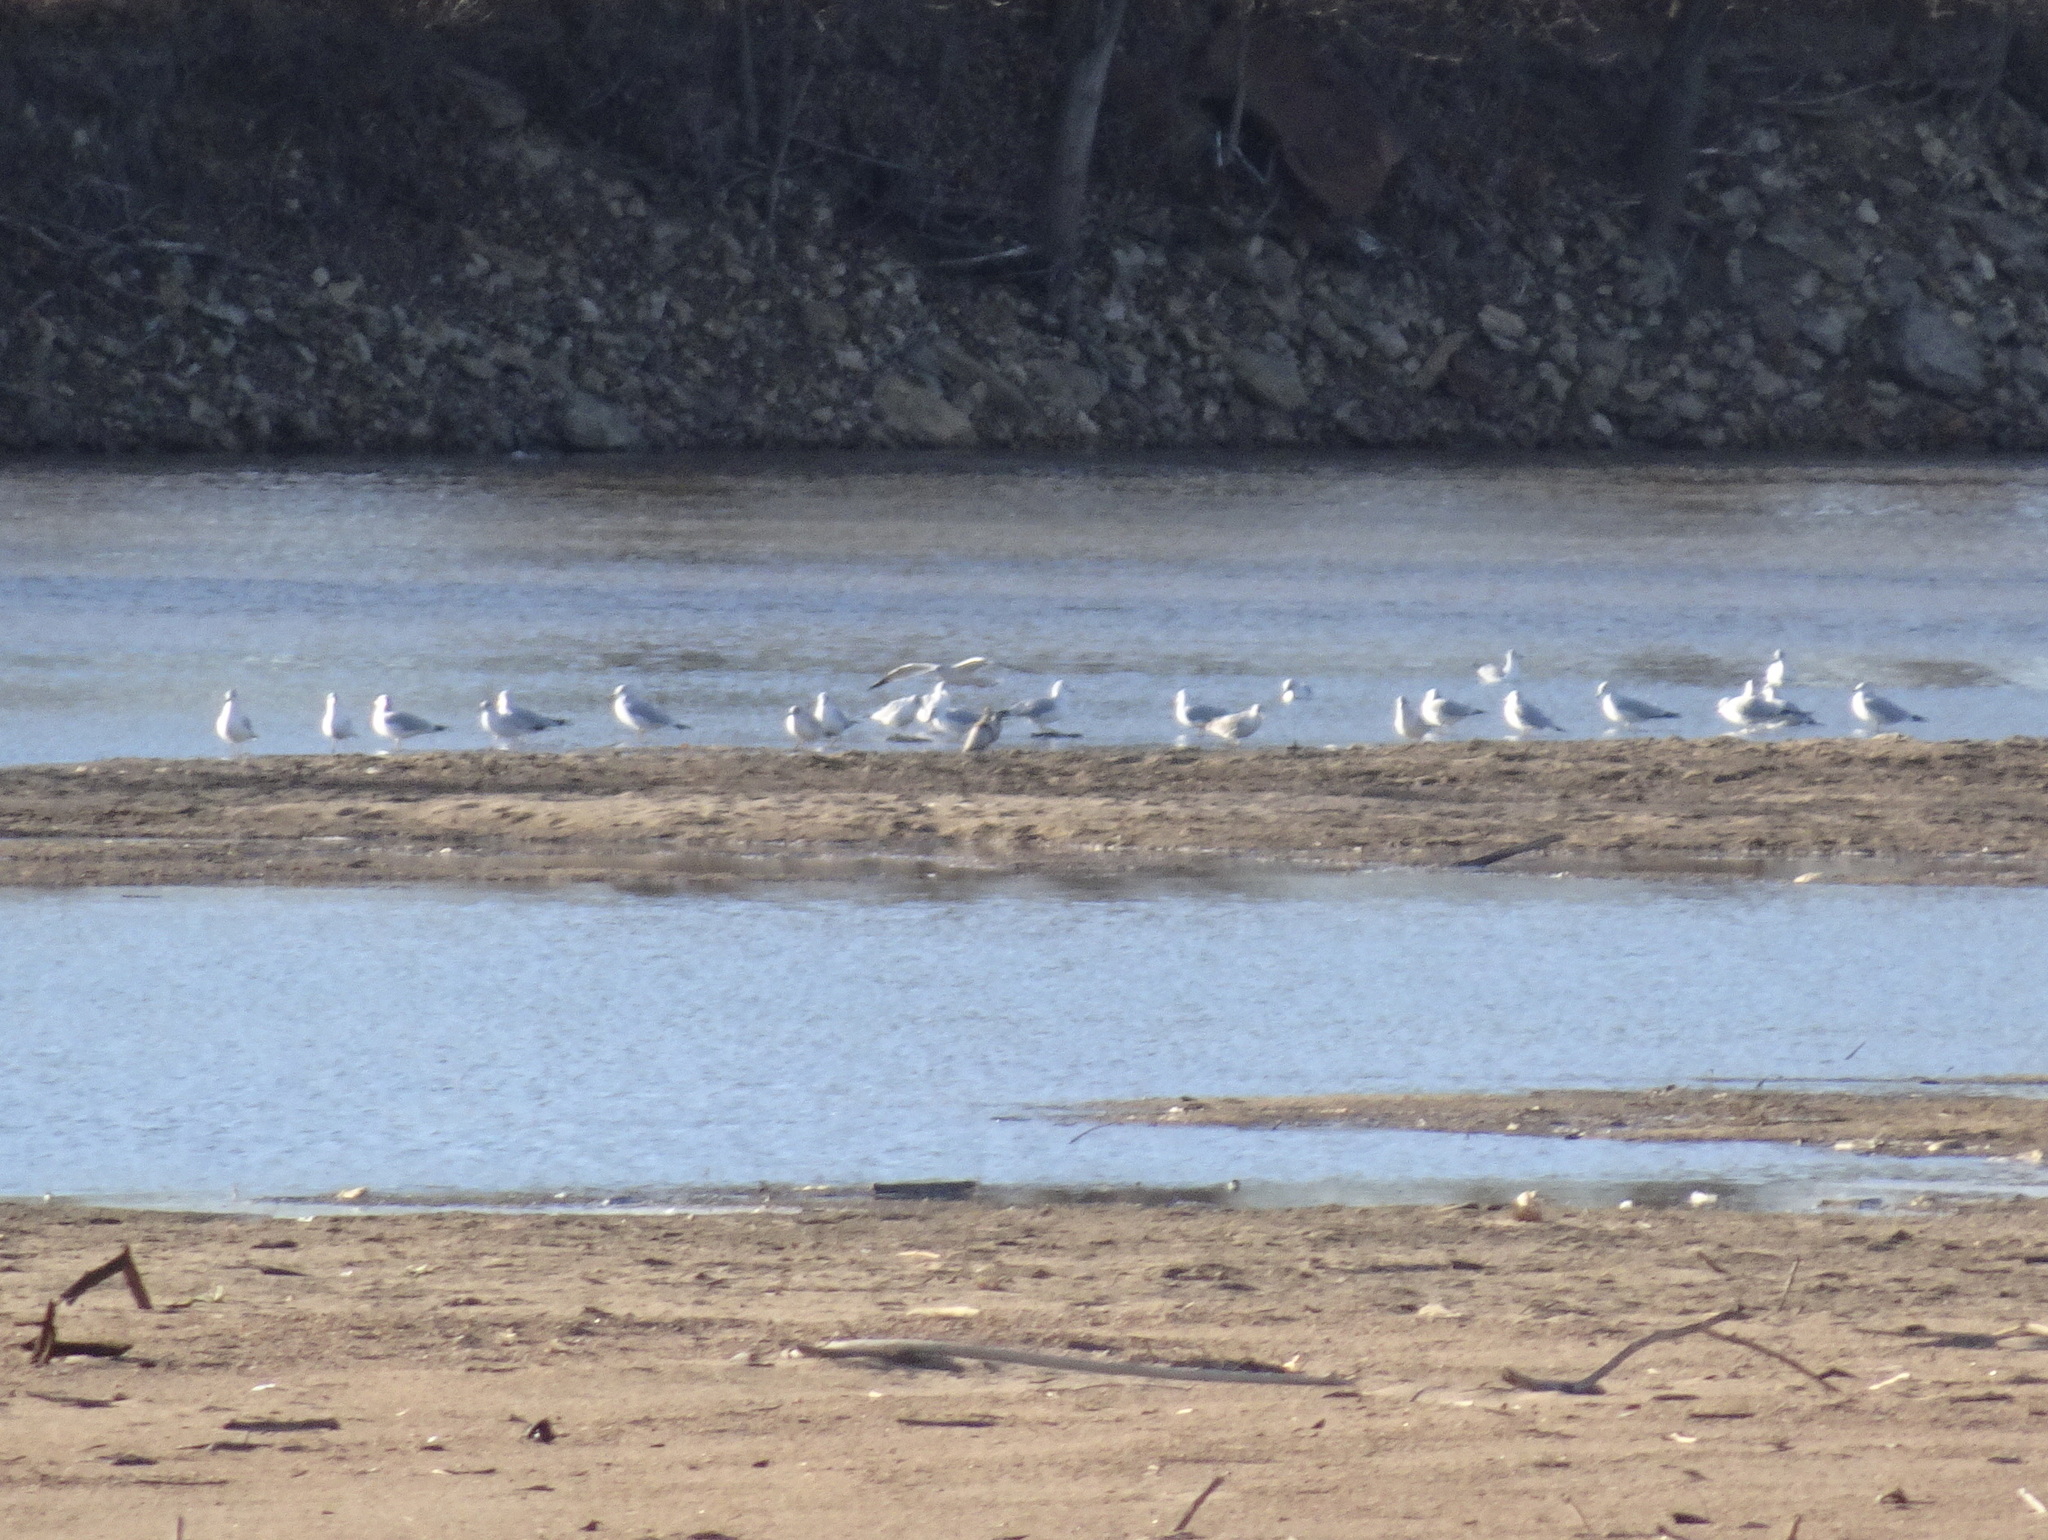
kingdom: Animalia
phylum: Chordata
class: Aves
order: Charadriiformes
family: Laridae
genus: Larus
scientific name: Larus delawarensis
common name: Ring-billed gull
